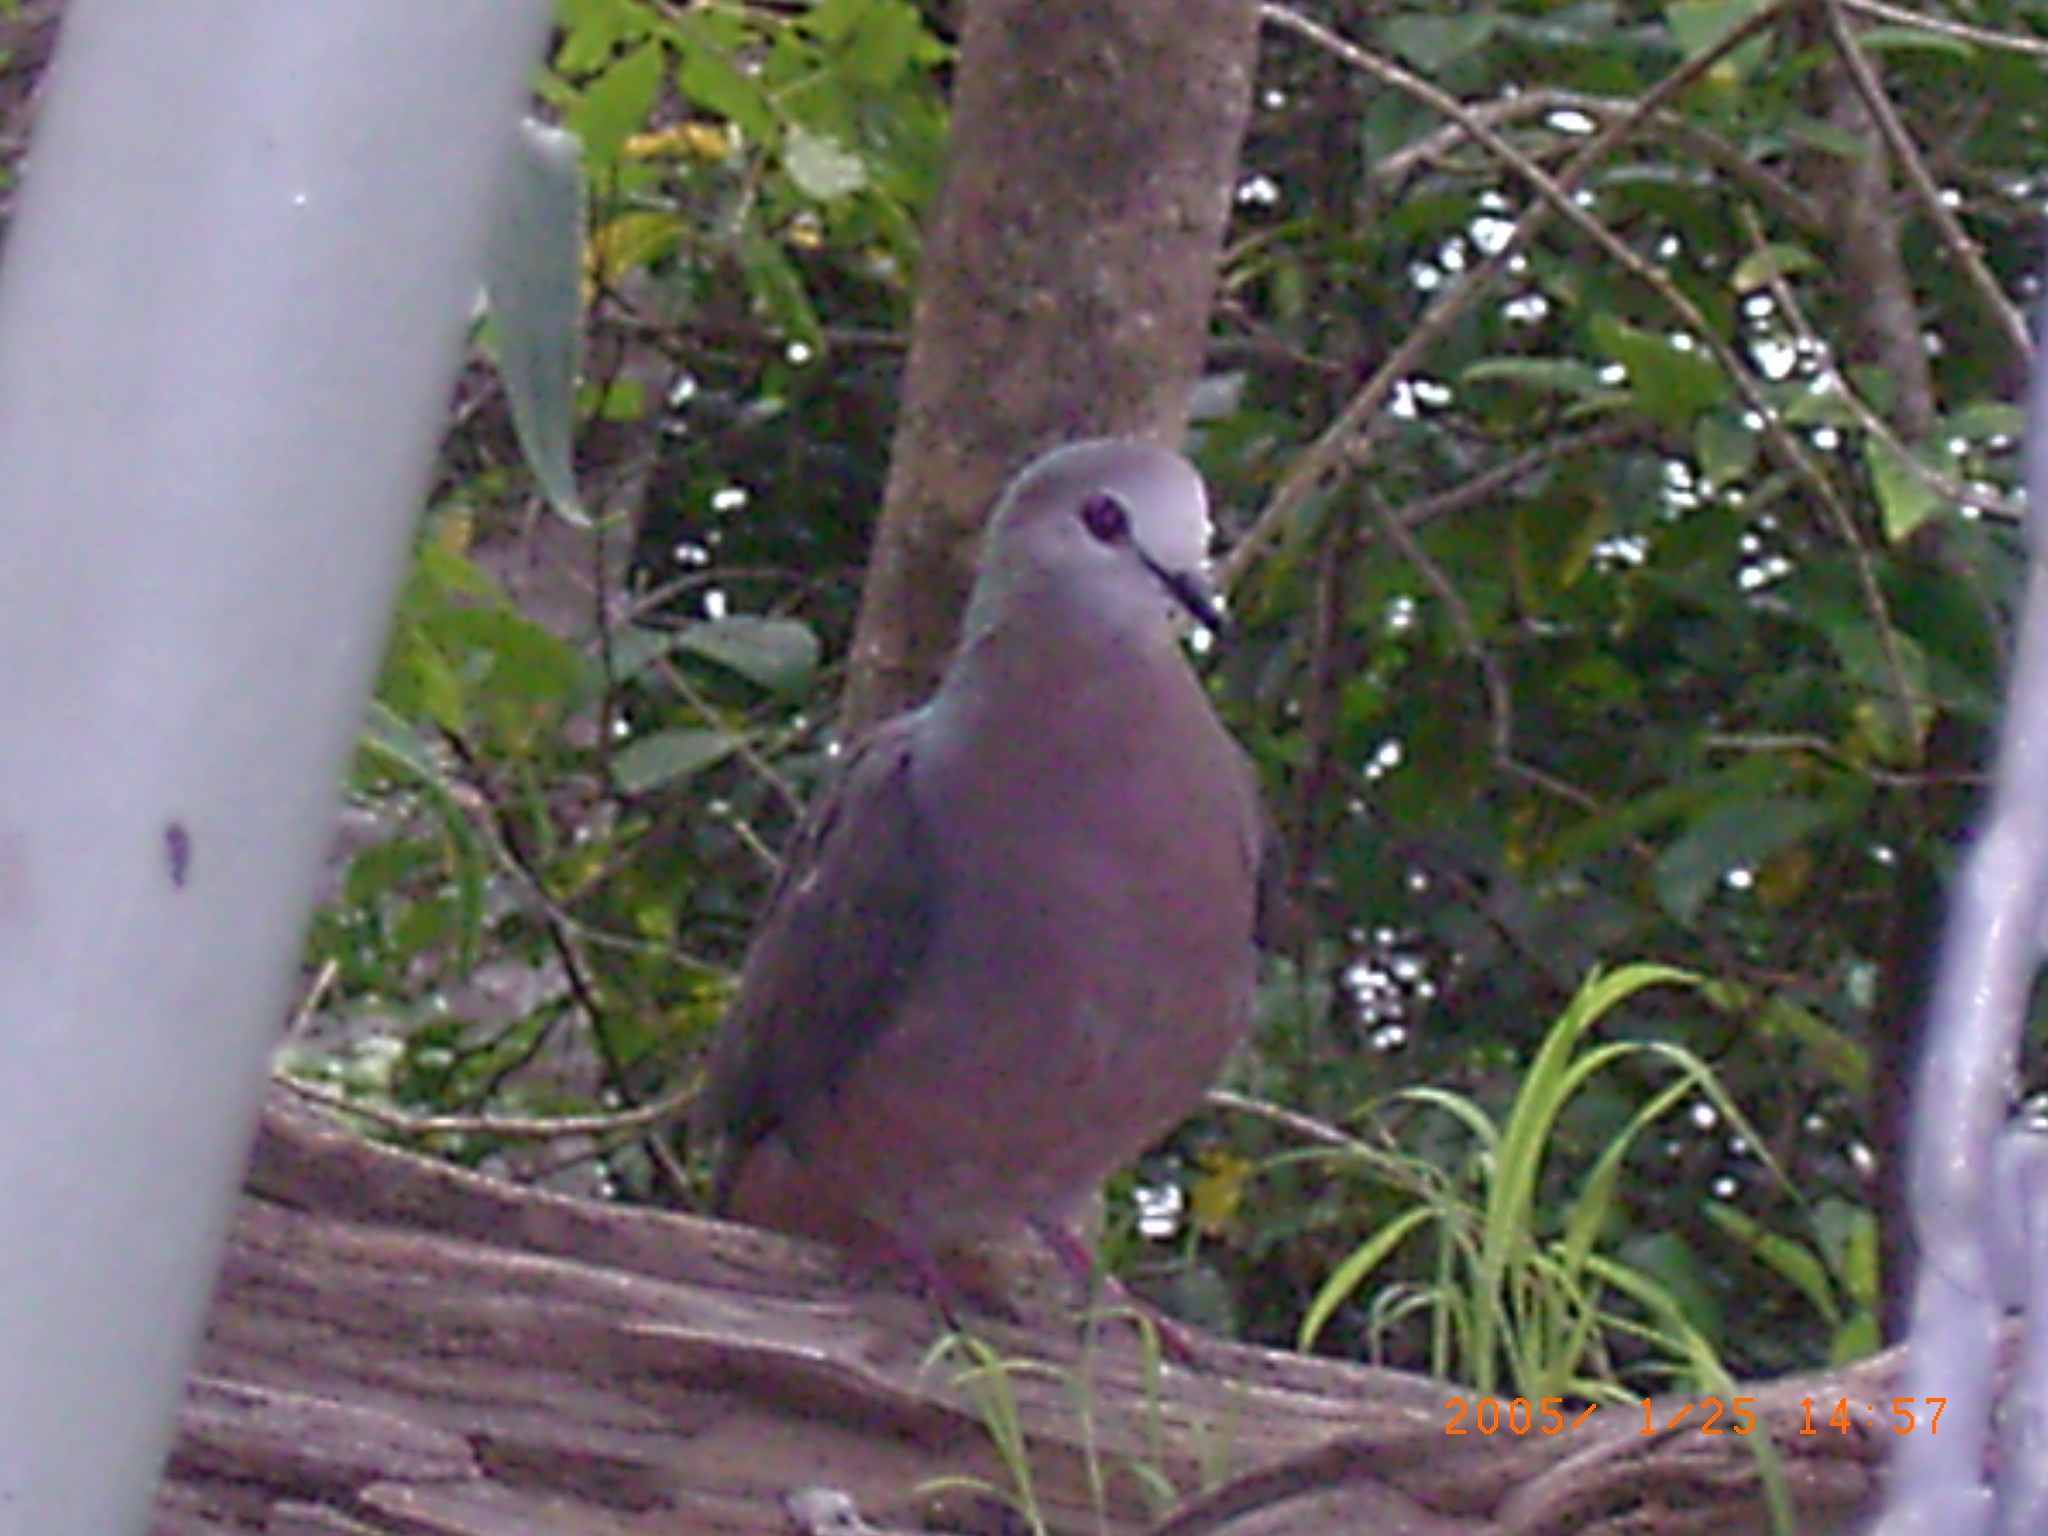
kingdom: Animalia
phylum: Chordata
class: Aves
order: Columbiformes
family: Columbidae
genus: Columba
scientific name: Columba larvata
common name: Lemon dove
